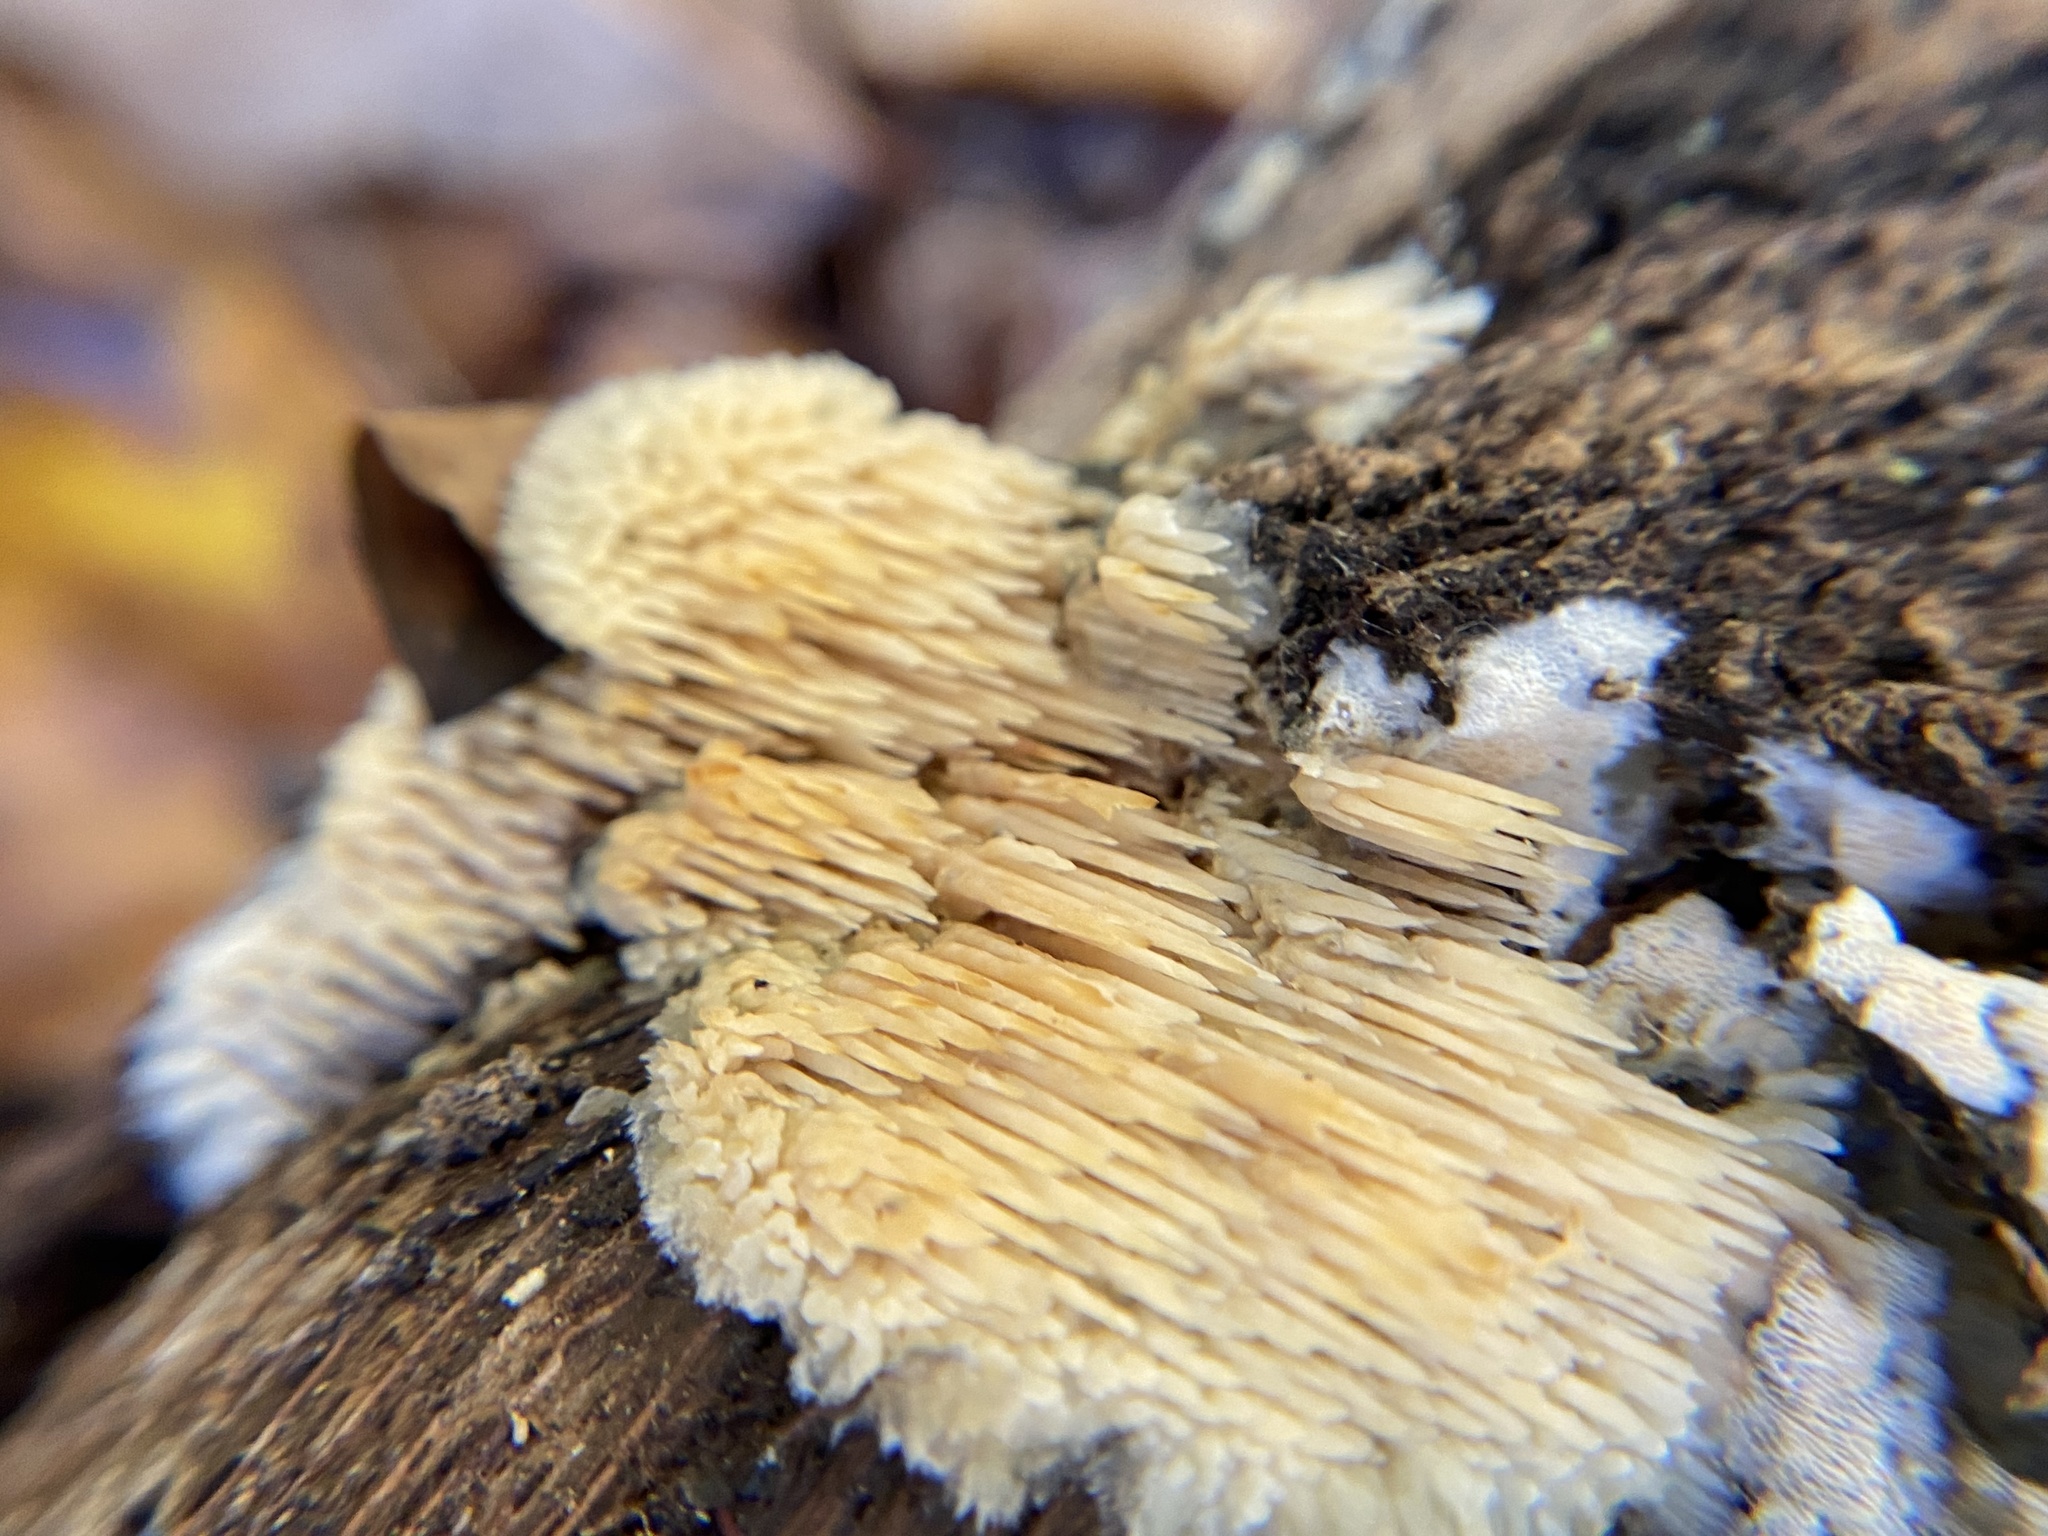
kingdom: Fungi
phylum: Basidiomycota
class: Agaricomycetes
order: Agaricales
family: Radulomycetaceae
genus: Radulomyces
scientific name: Radulomyces copelandii
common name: Asian beauty
